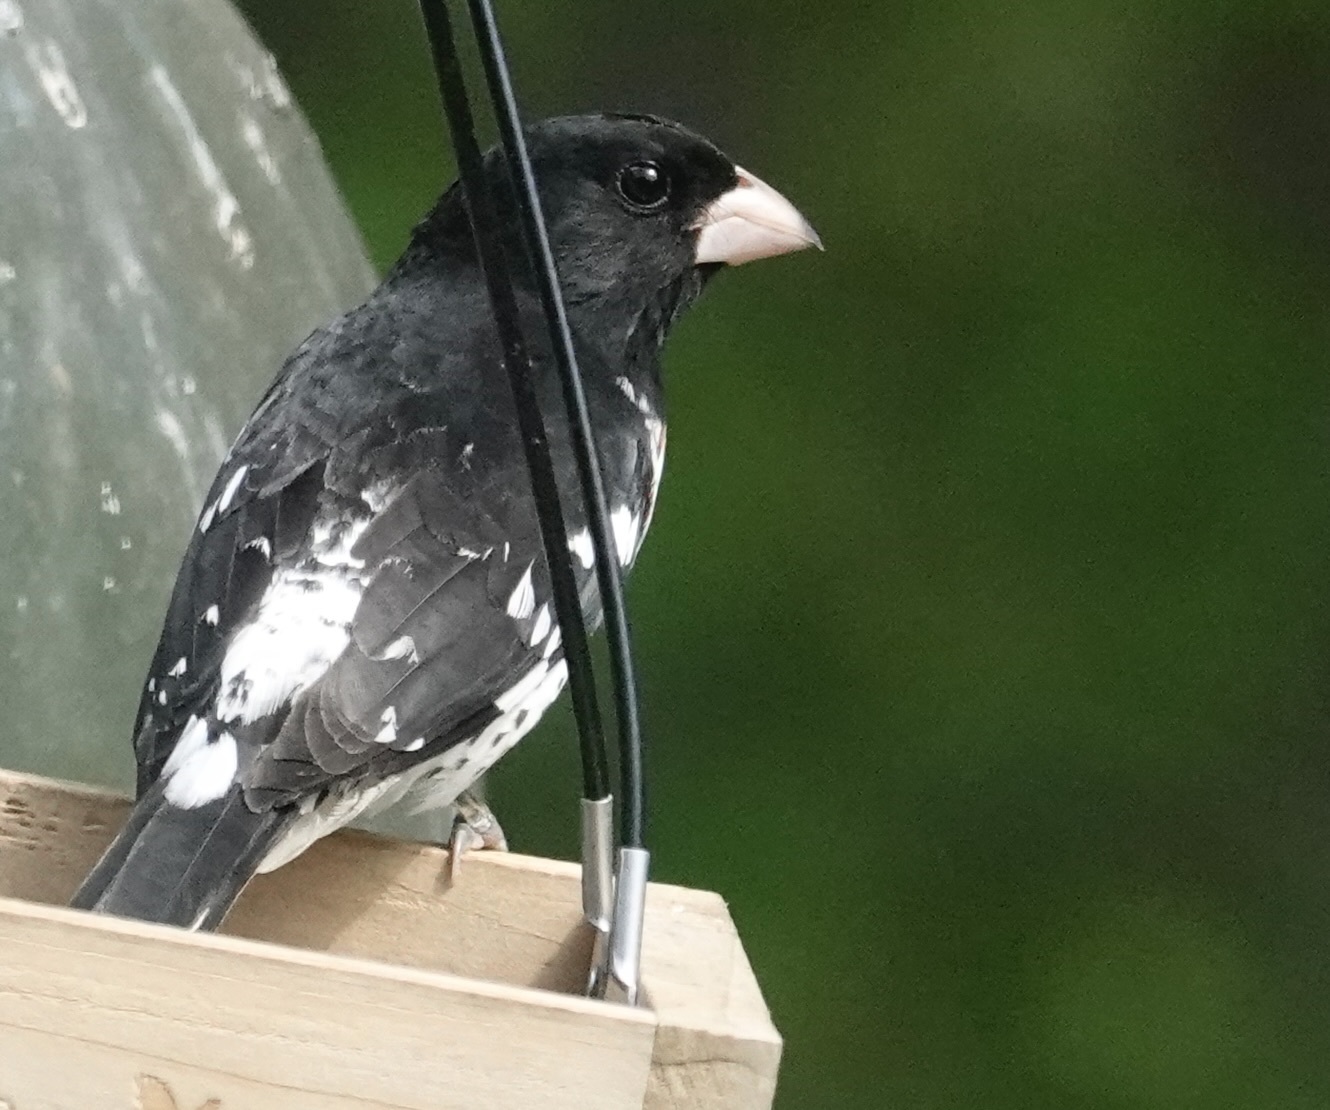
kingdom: Animalia
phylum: Chordata
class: Aves
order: Passeriformes
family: Cardinalidae
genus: Pheucticus
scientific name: Pheucticus ludovicianus
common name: Rose-breasted grosbeak
